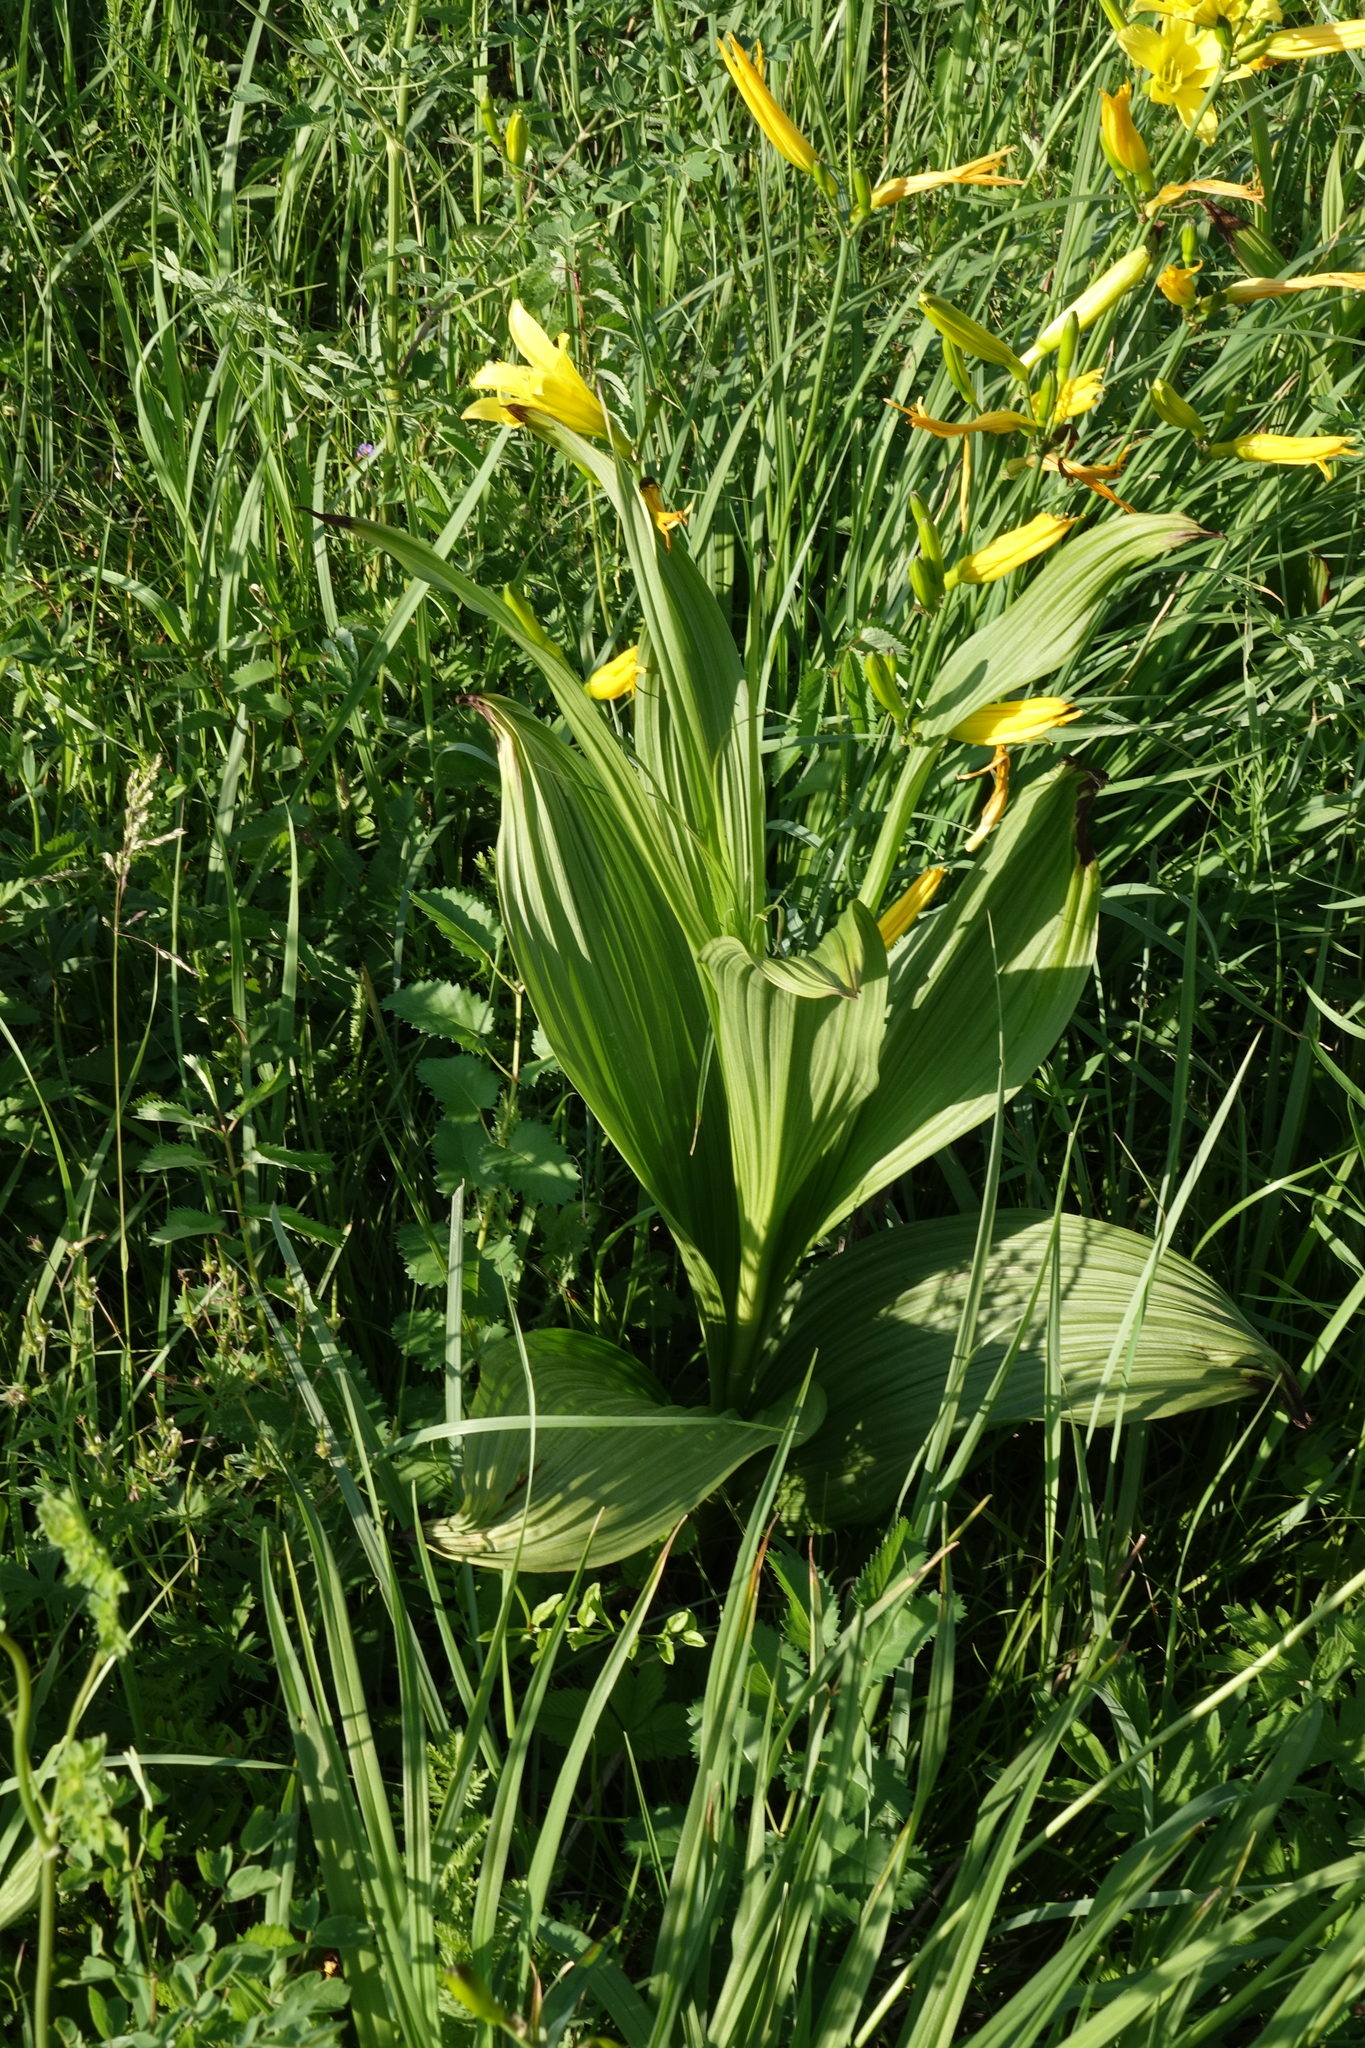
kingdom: Plantae
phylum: Tracheophyta
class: Liliopsida
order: Liliales
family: Melanthiaceae
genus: Veratrum
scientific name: Veratrum nigrum
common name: Black veratrum
